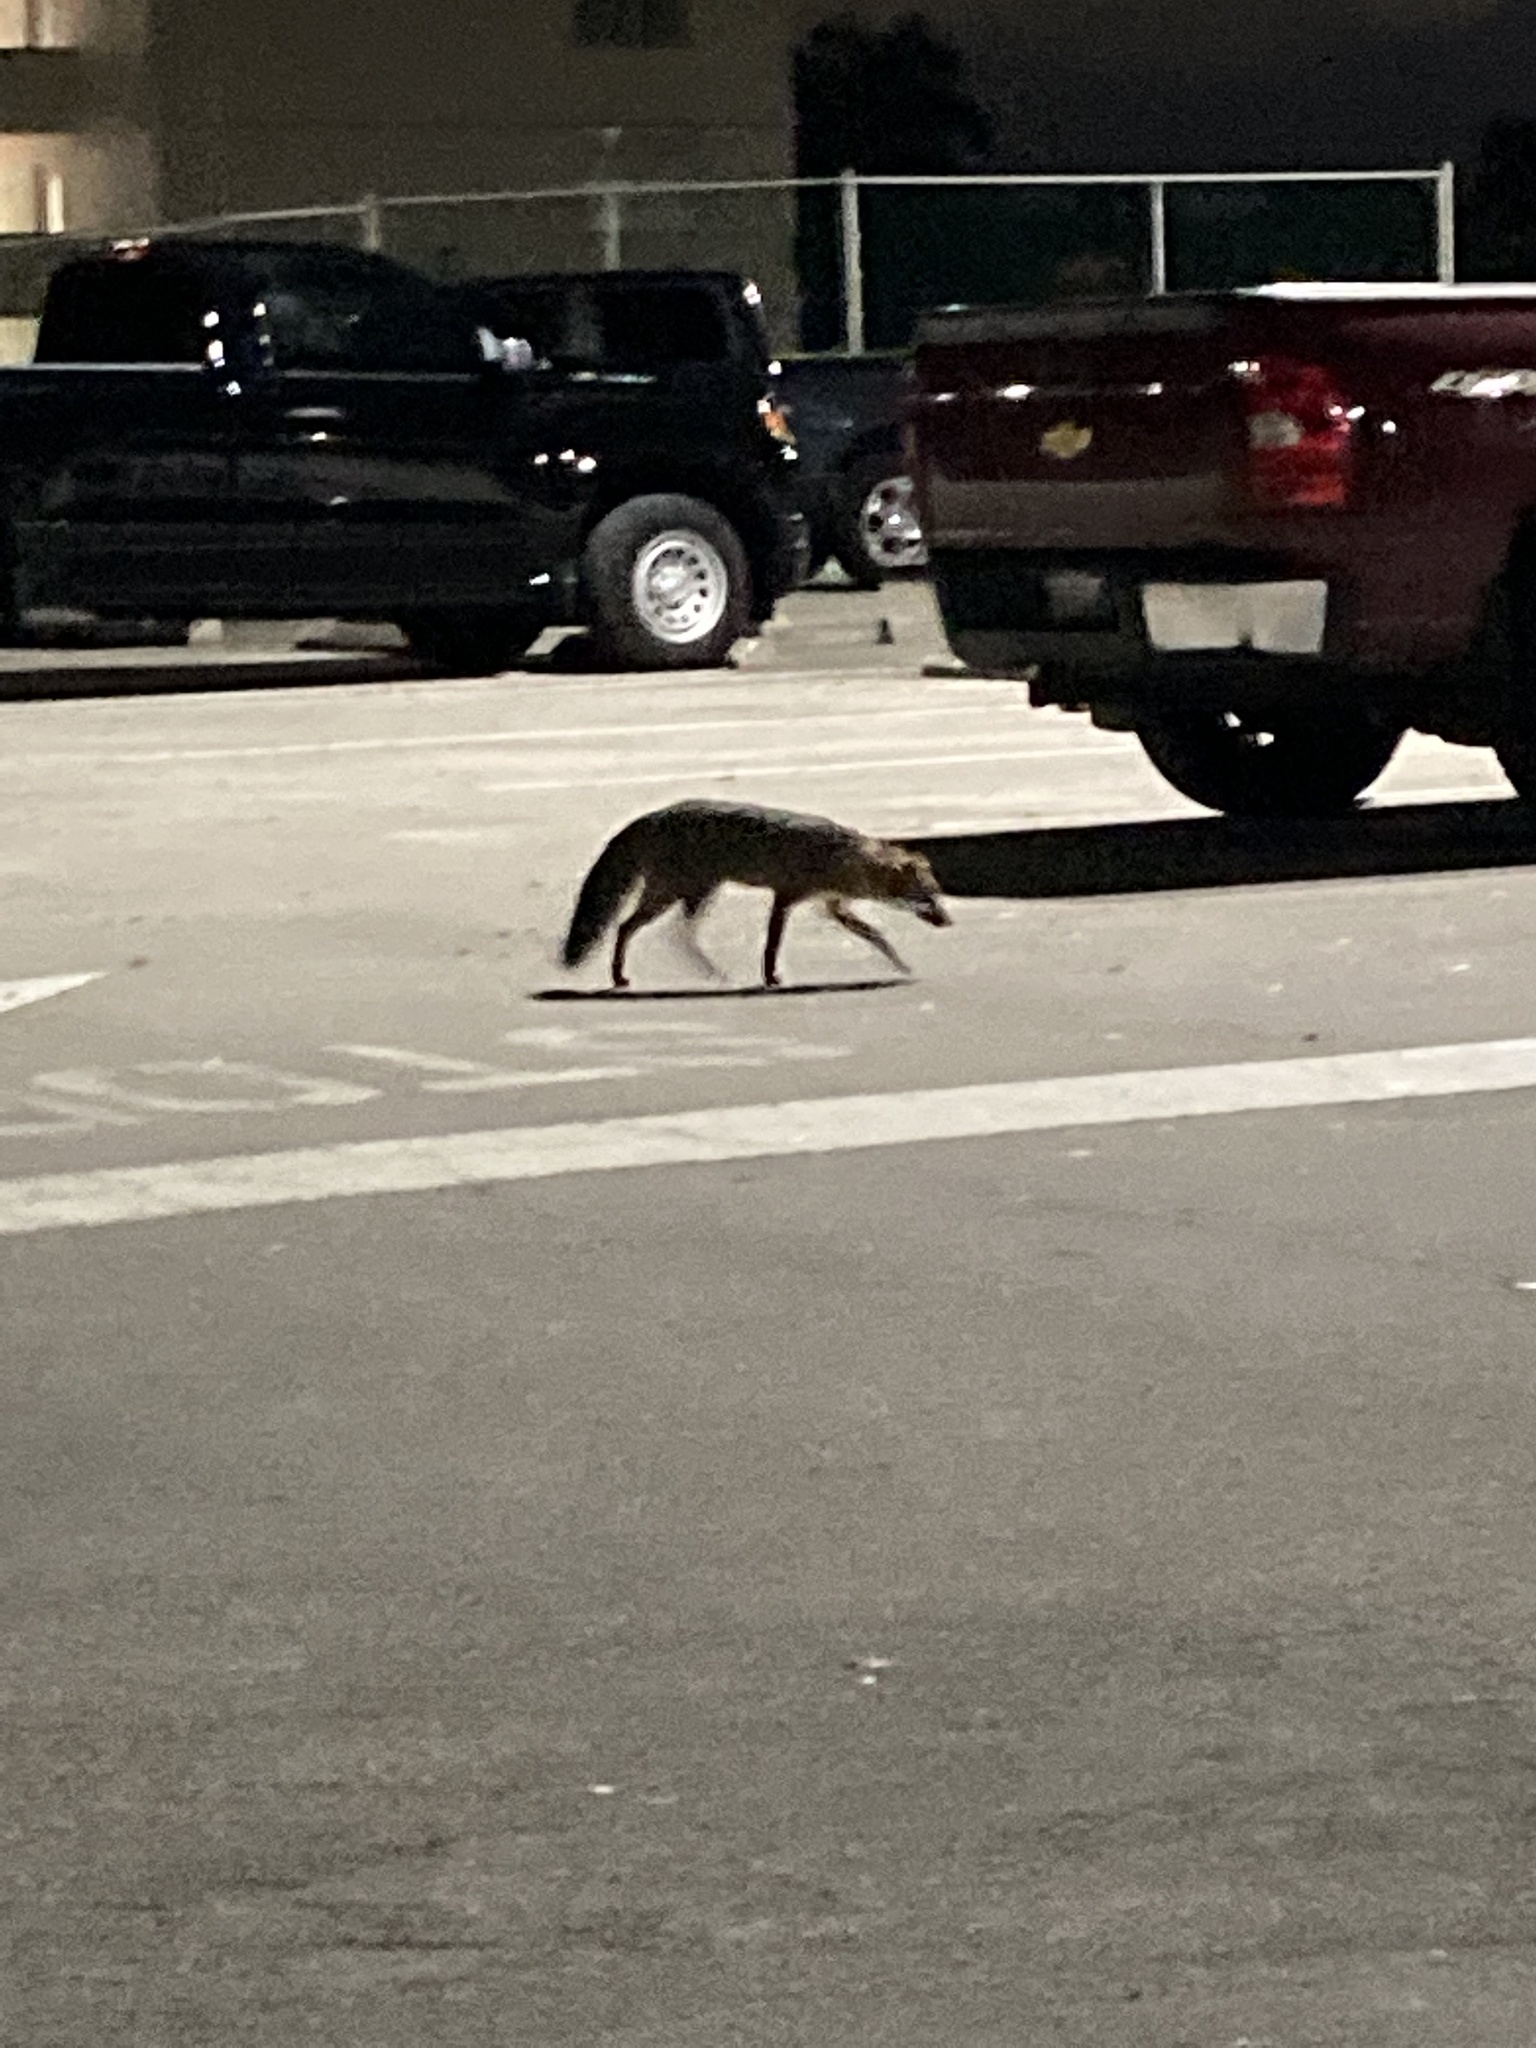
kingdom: Animalia
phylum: Chordata
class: Mammalia
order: Carnivora
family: Canidae
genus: Urocyon
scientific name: Urocyon cinereoargenteus
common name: Gray fox
